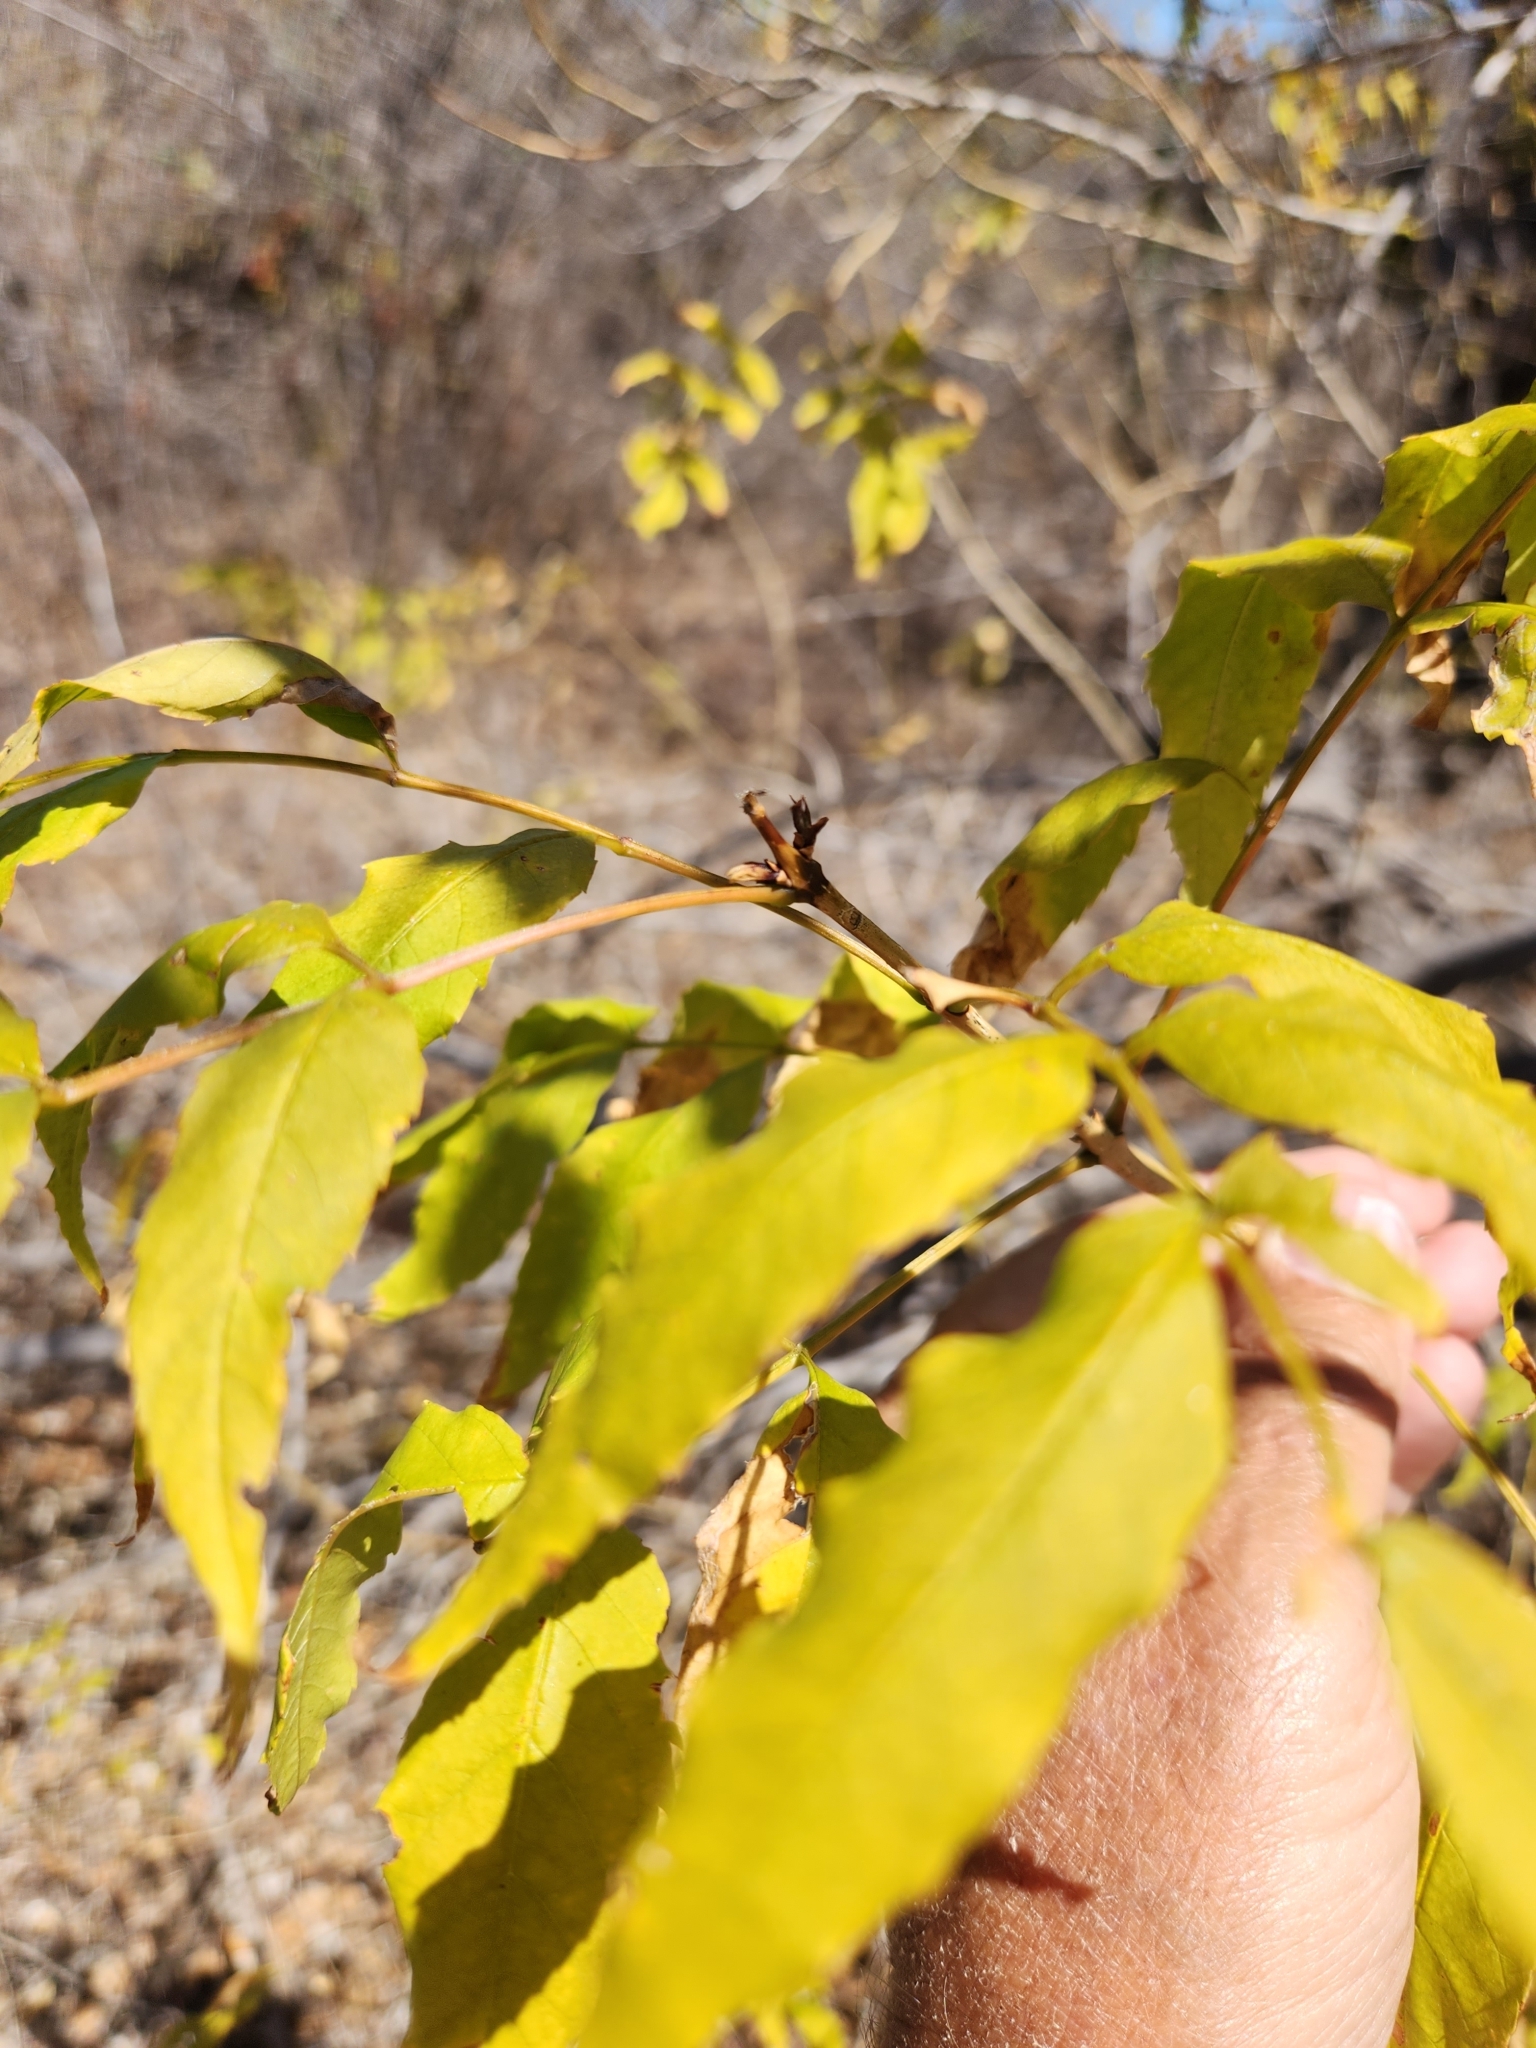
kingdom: Plantae
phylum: Tracheophyta
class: Magnoliopsida
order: Lamiales
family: Bignoniaceae
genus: Tecoma
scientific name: Tecoma stans
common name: Yellow trumpetbush
